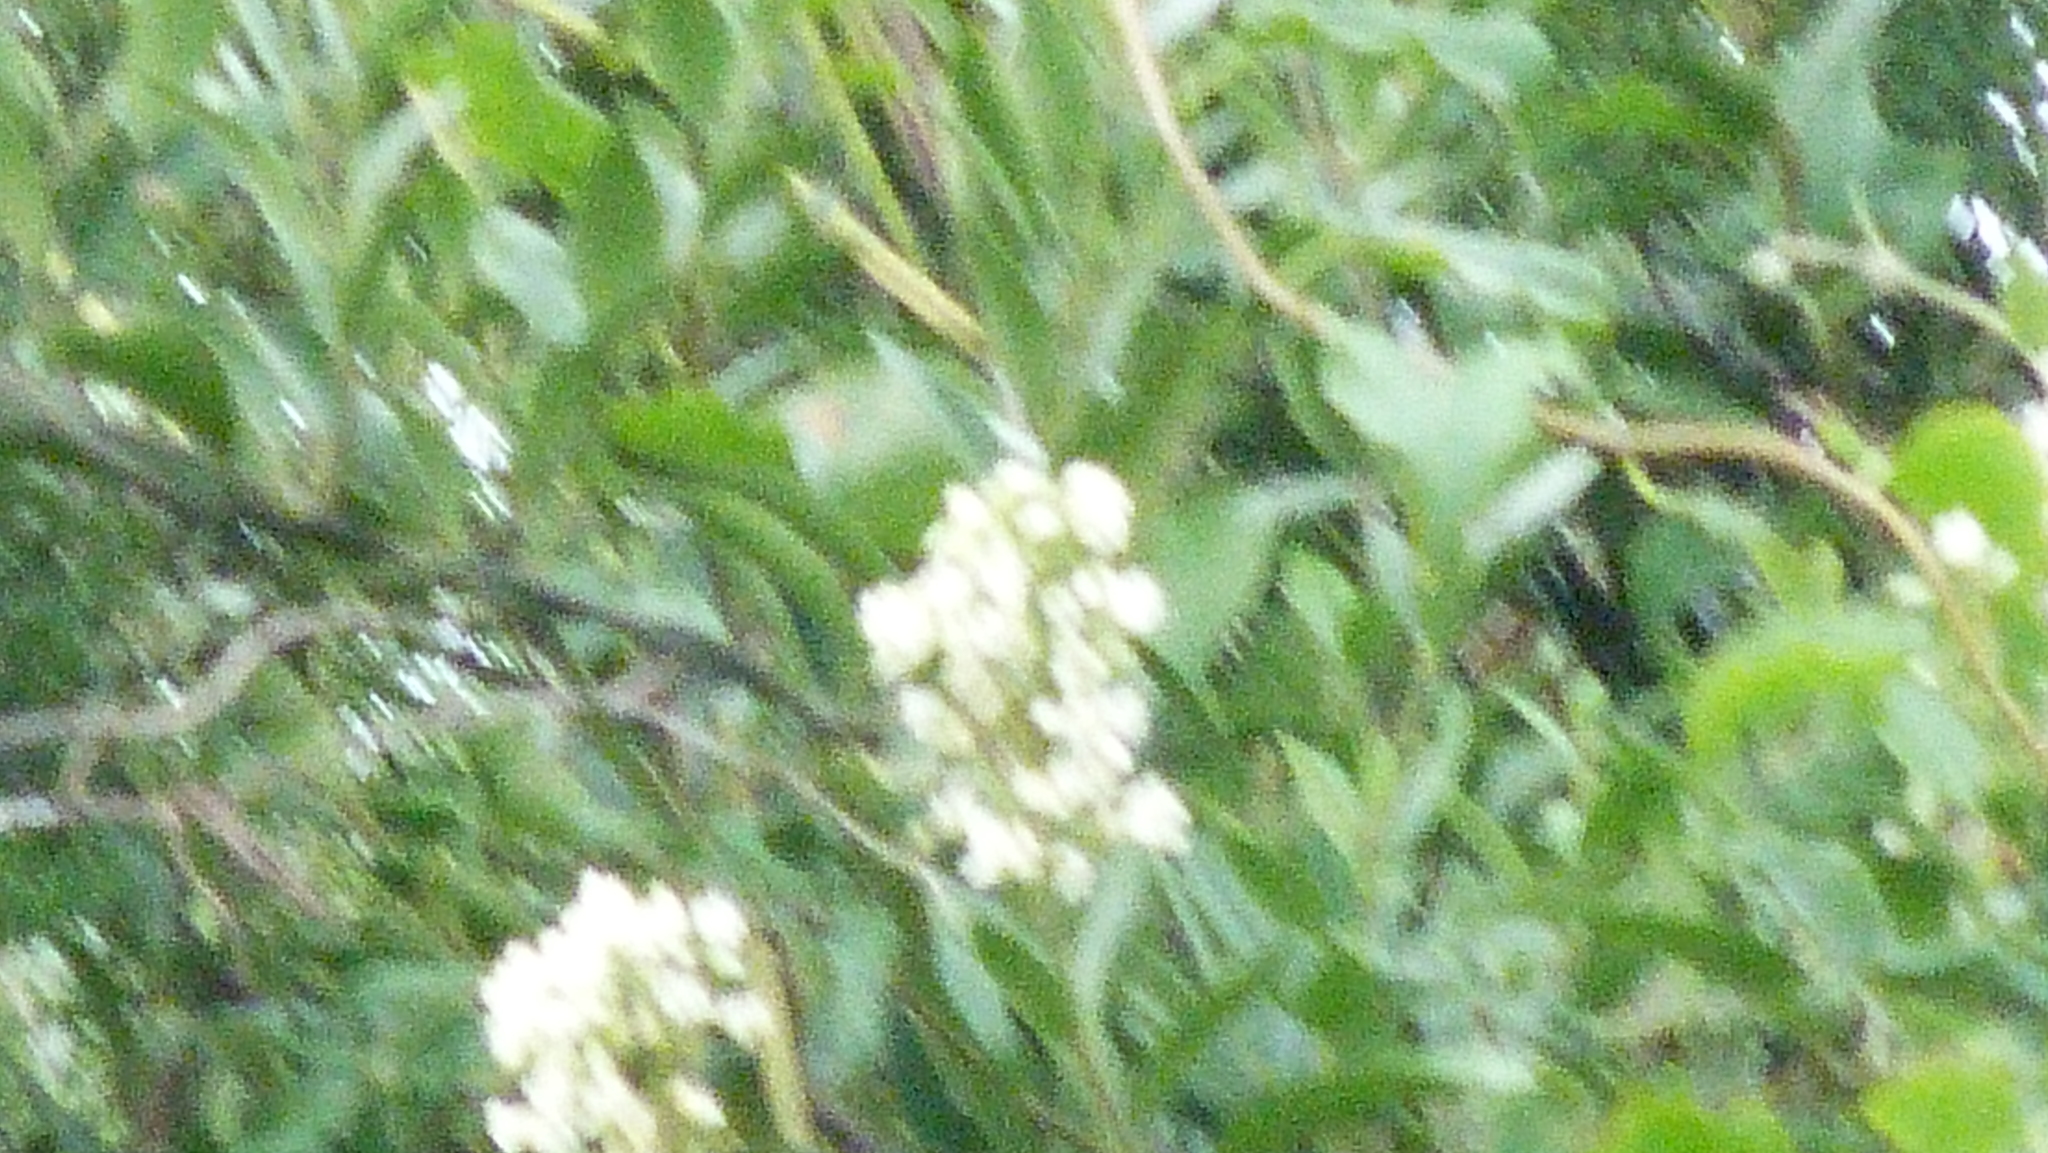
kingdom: Plantae
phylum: Tracheophyta
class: Magnoliopsida
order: Gentianales
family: Apocynaceae
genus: Parsonsia
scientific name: Parsonsia heterophylla
